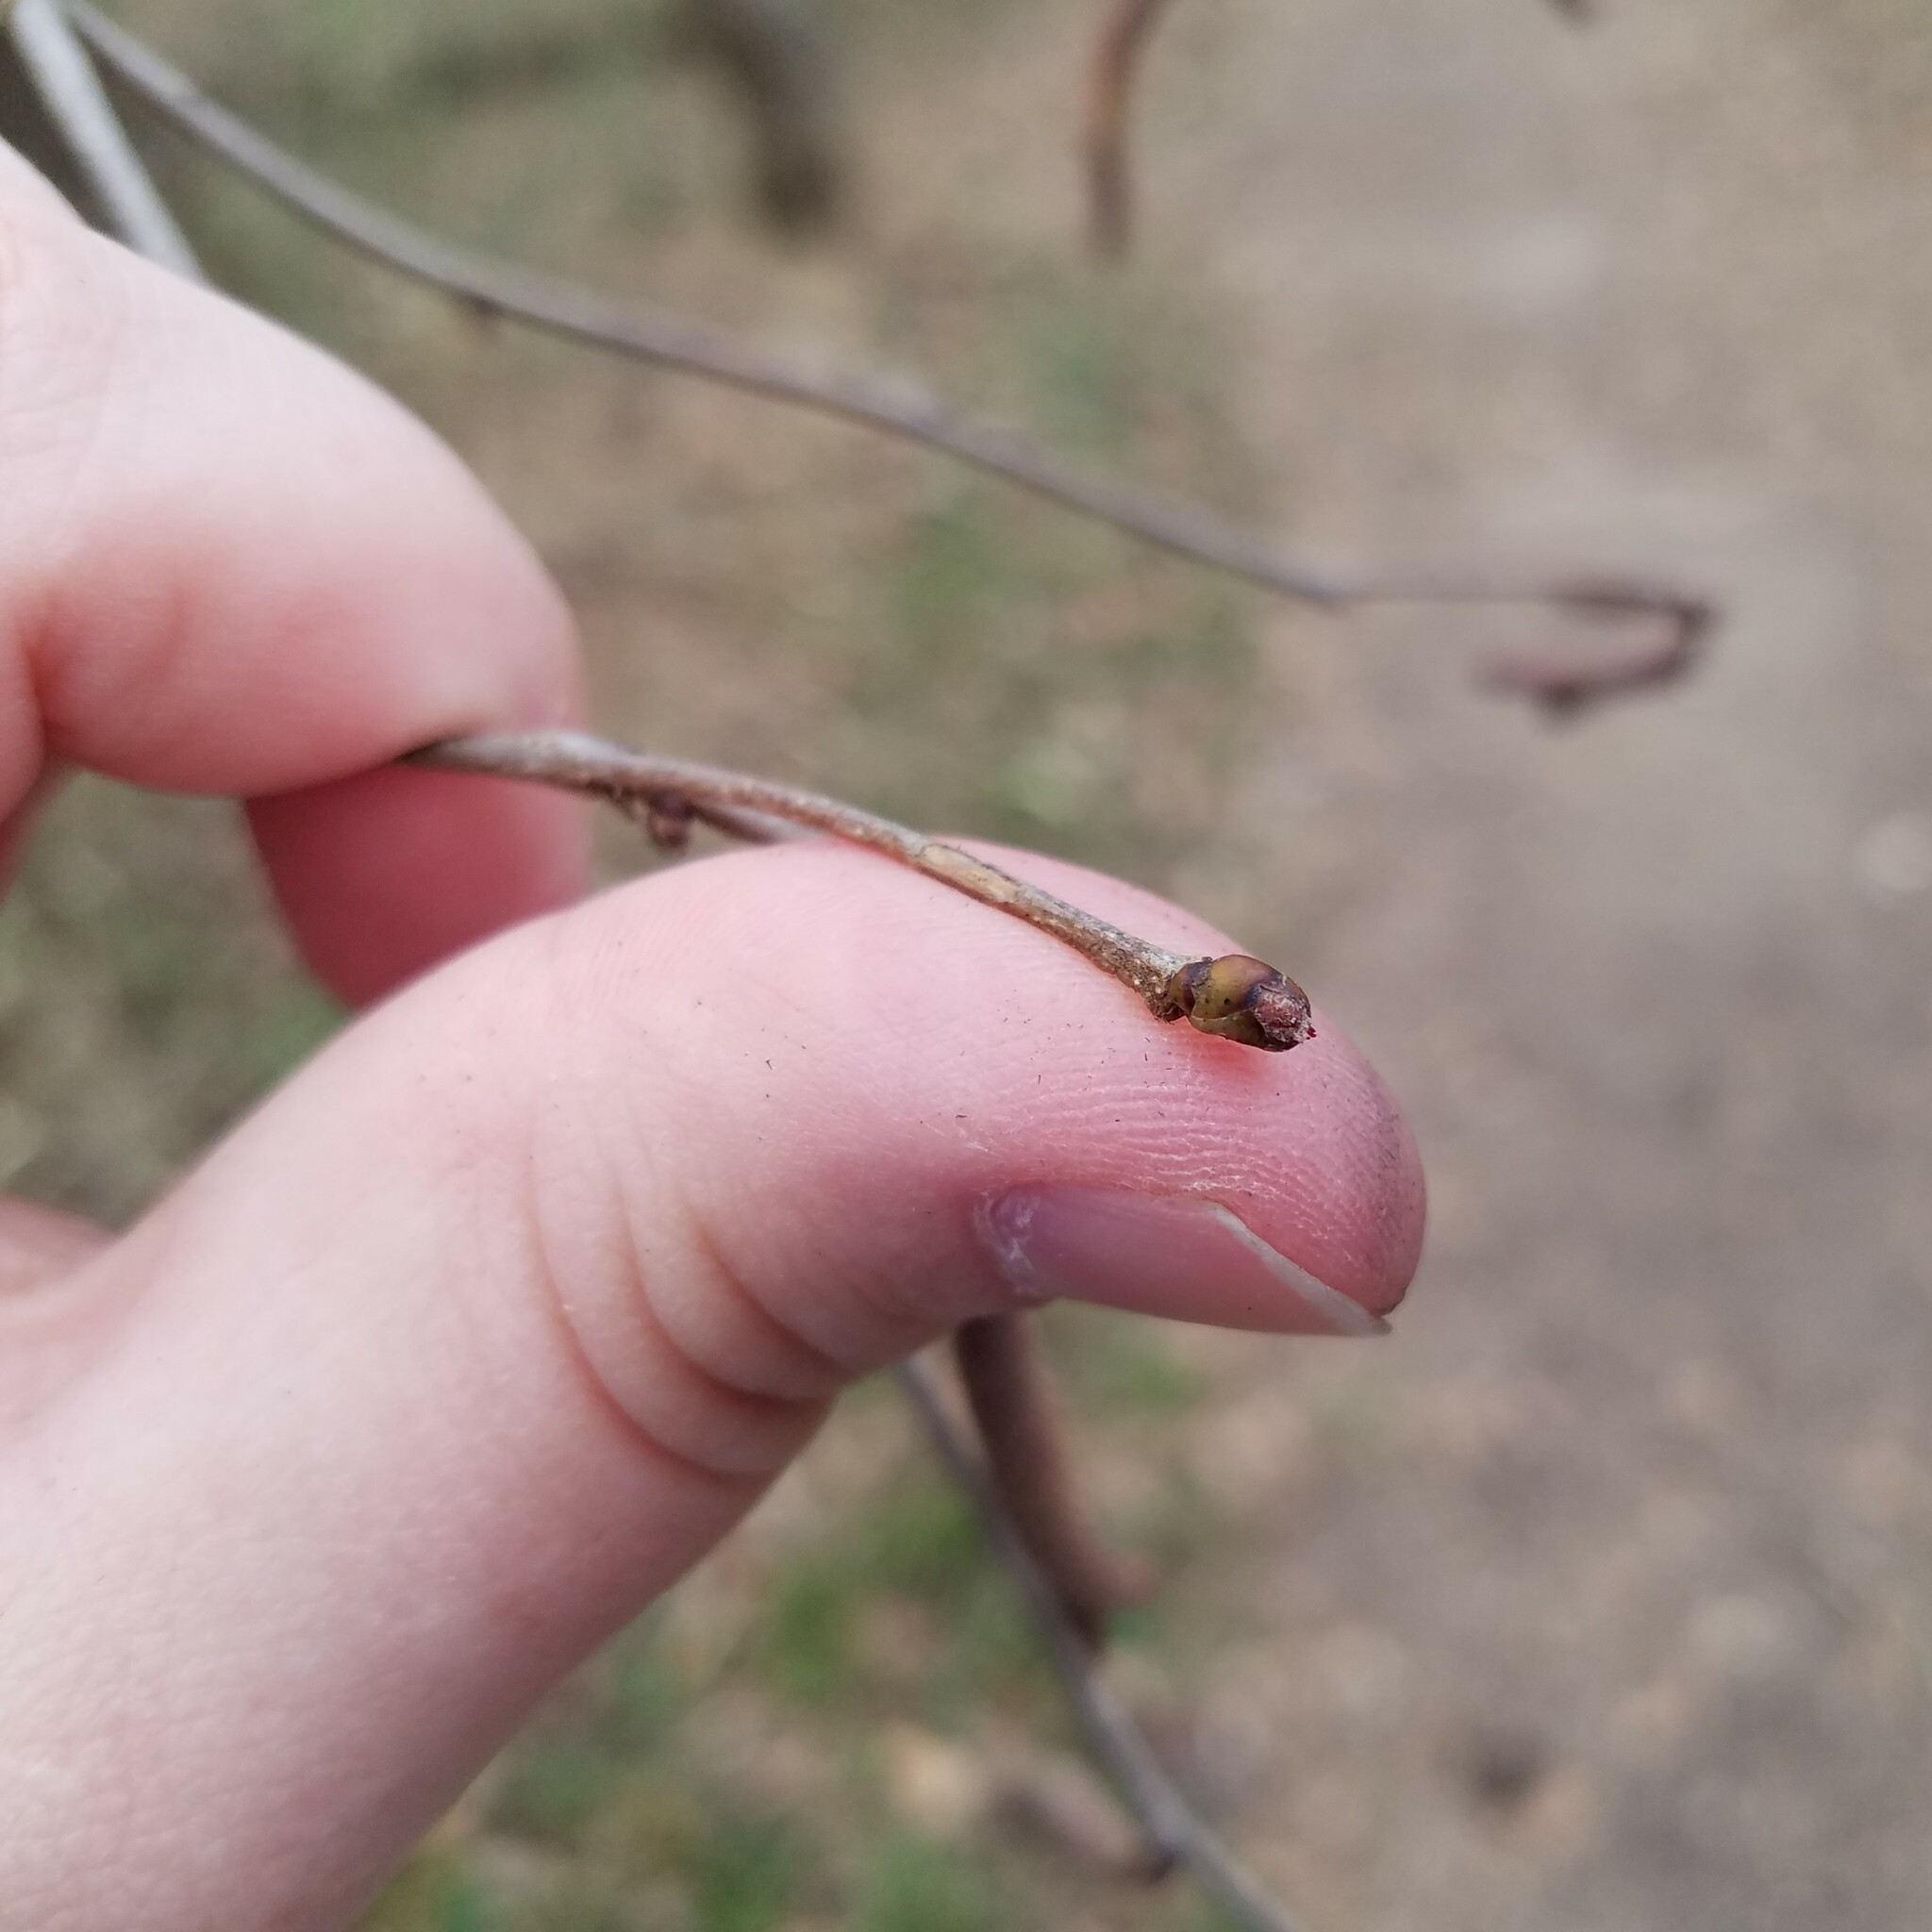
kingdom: Plantae
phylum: Tracheophyta
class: Magnoliopsida
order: Fagales
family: Betulaceae
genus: Corylus
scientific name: Corylus americana
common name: American hazel
